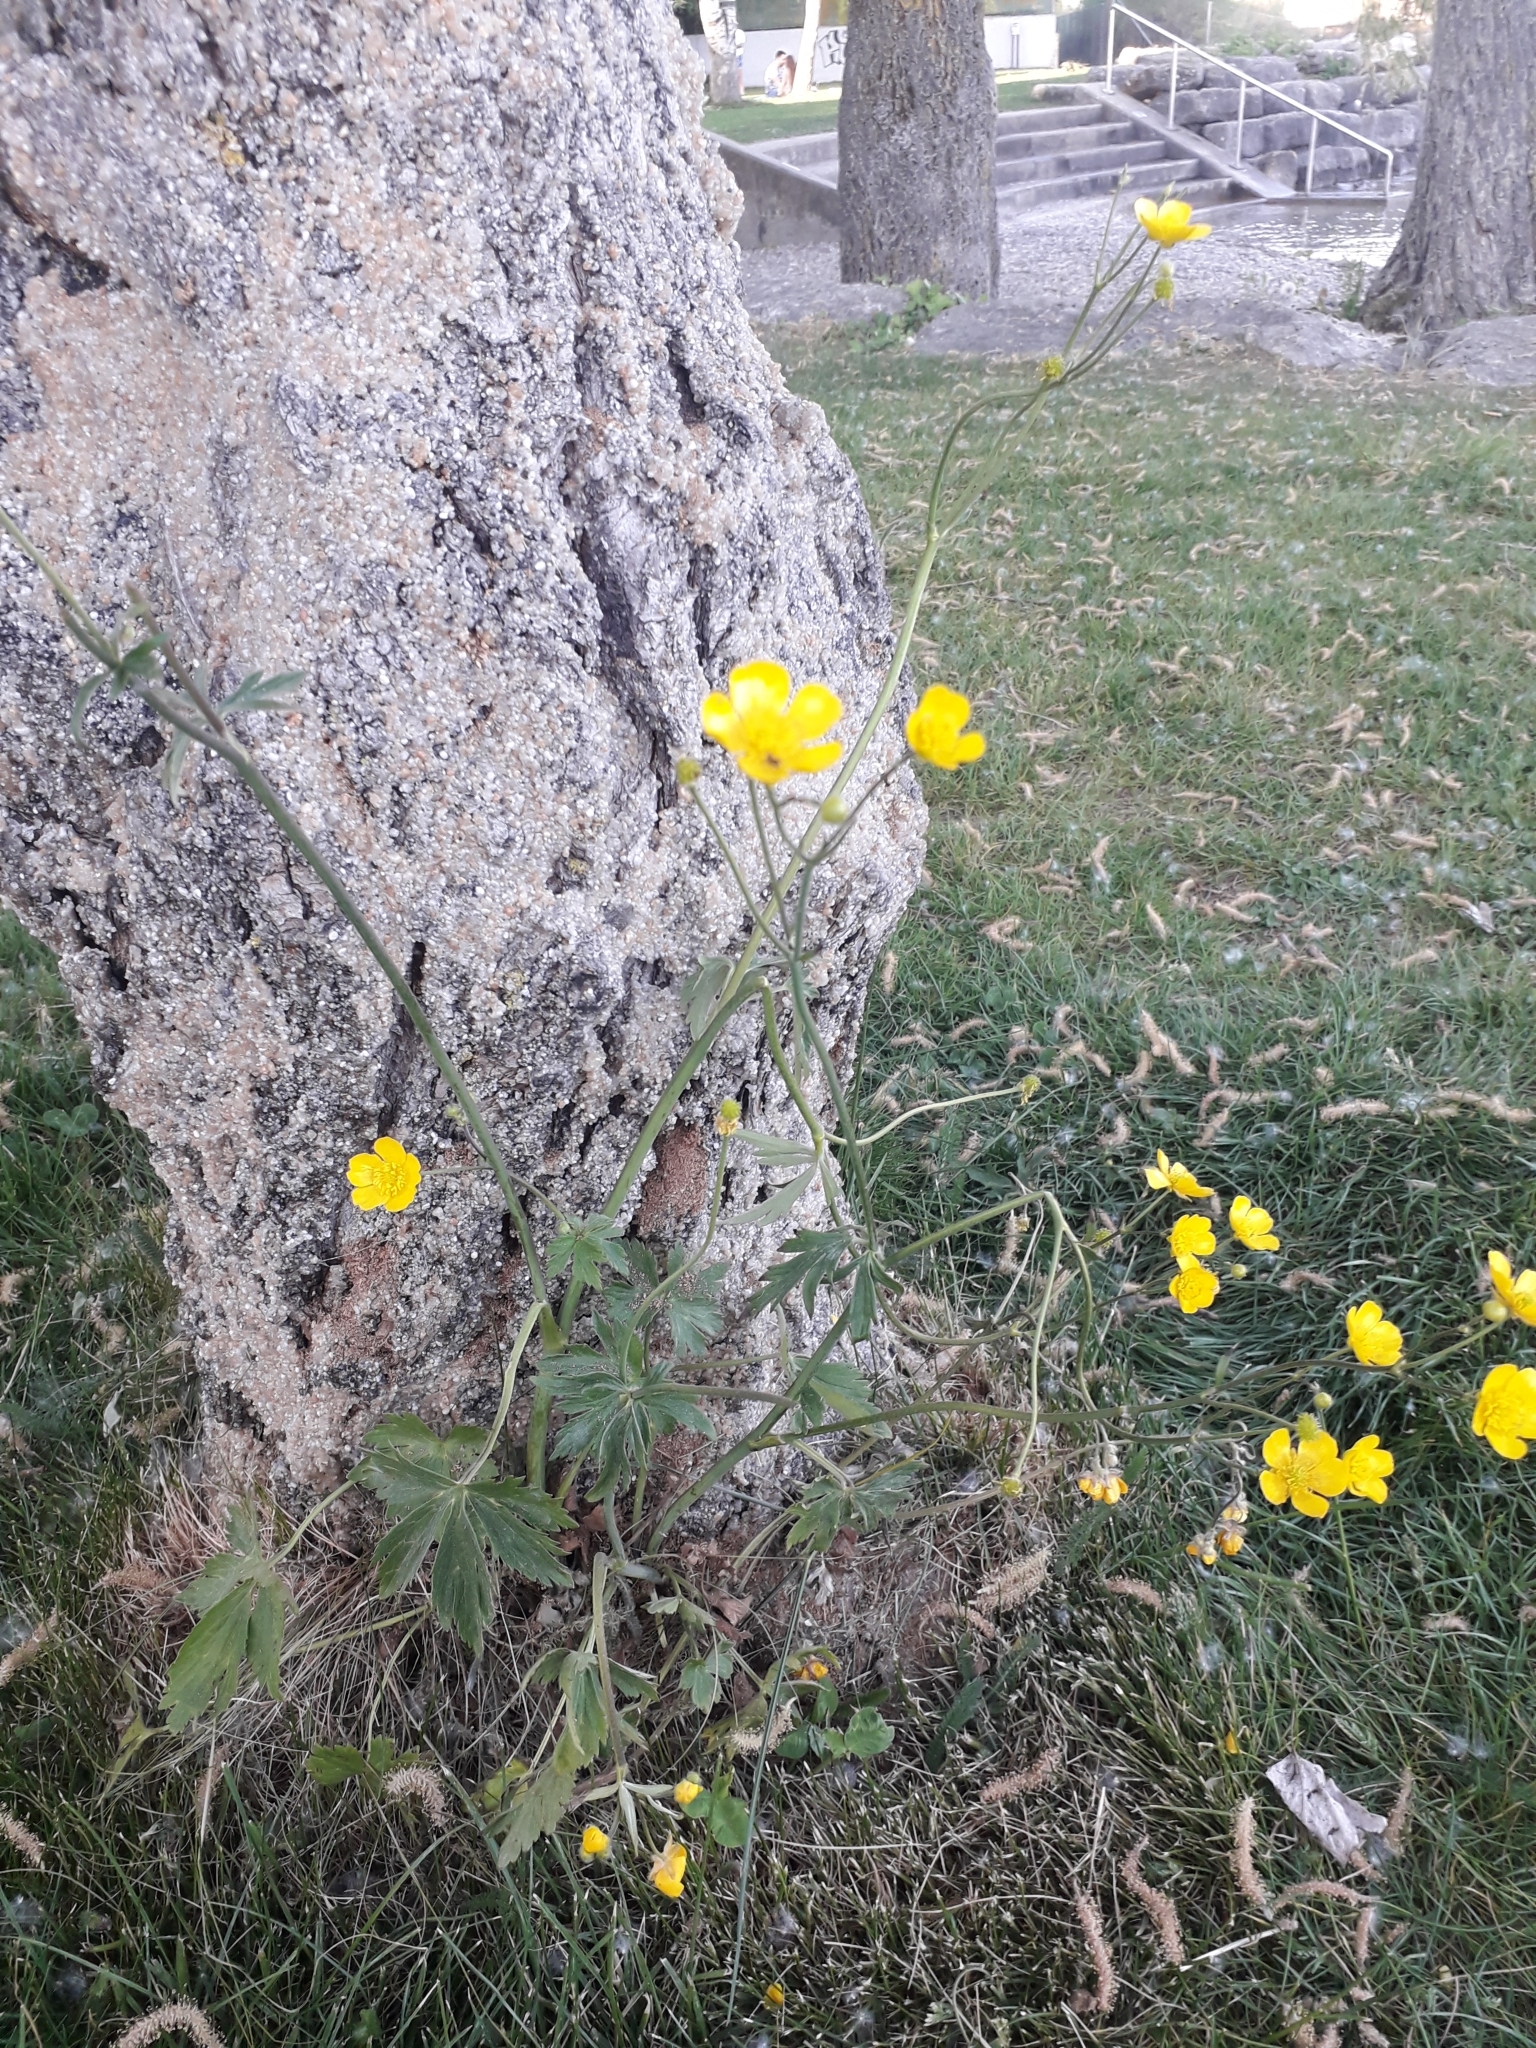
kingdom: Plantae
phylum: Tracheophyta
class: Magnoliopsida
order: Ranunculales
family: Ranunculaceae
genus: Ranunculus
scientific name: Ranunculus acris
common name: Meadow buttercup
